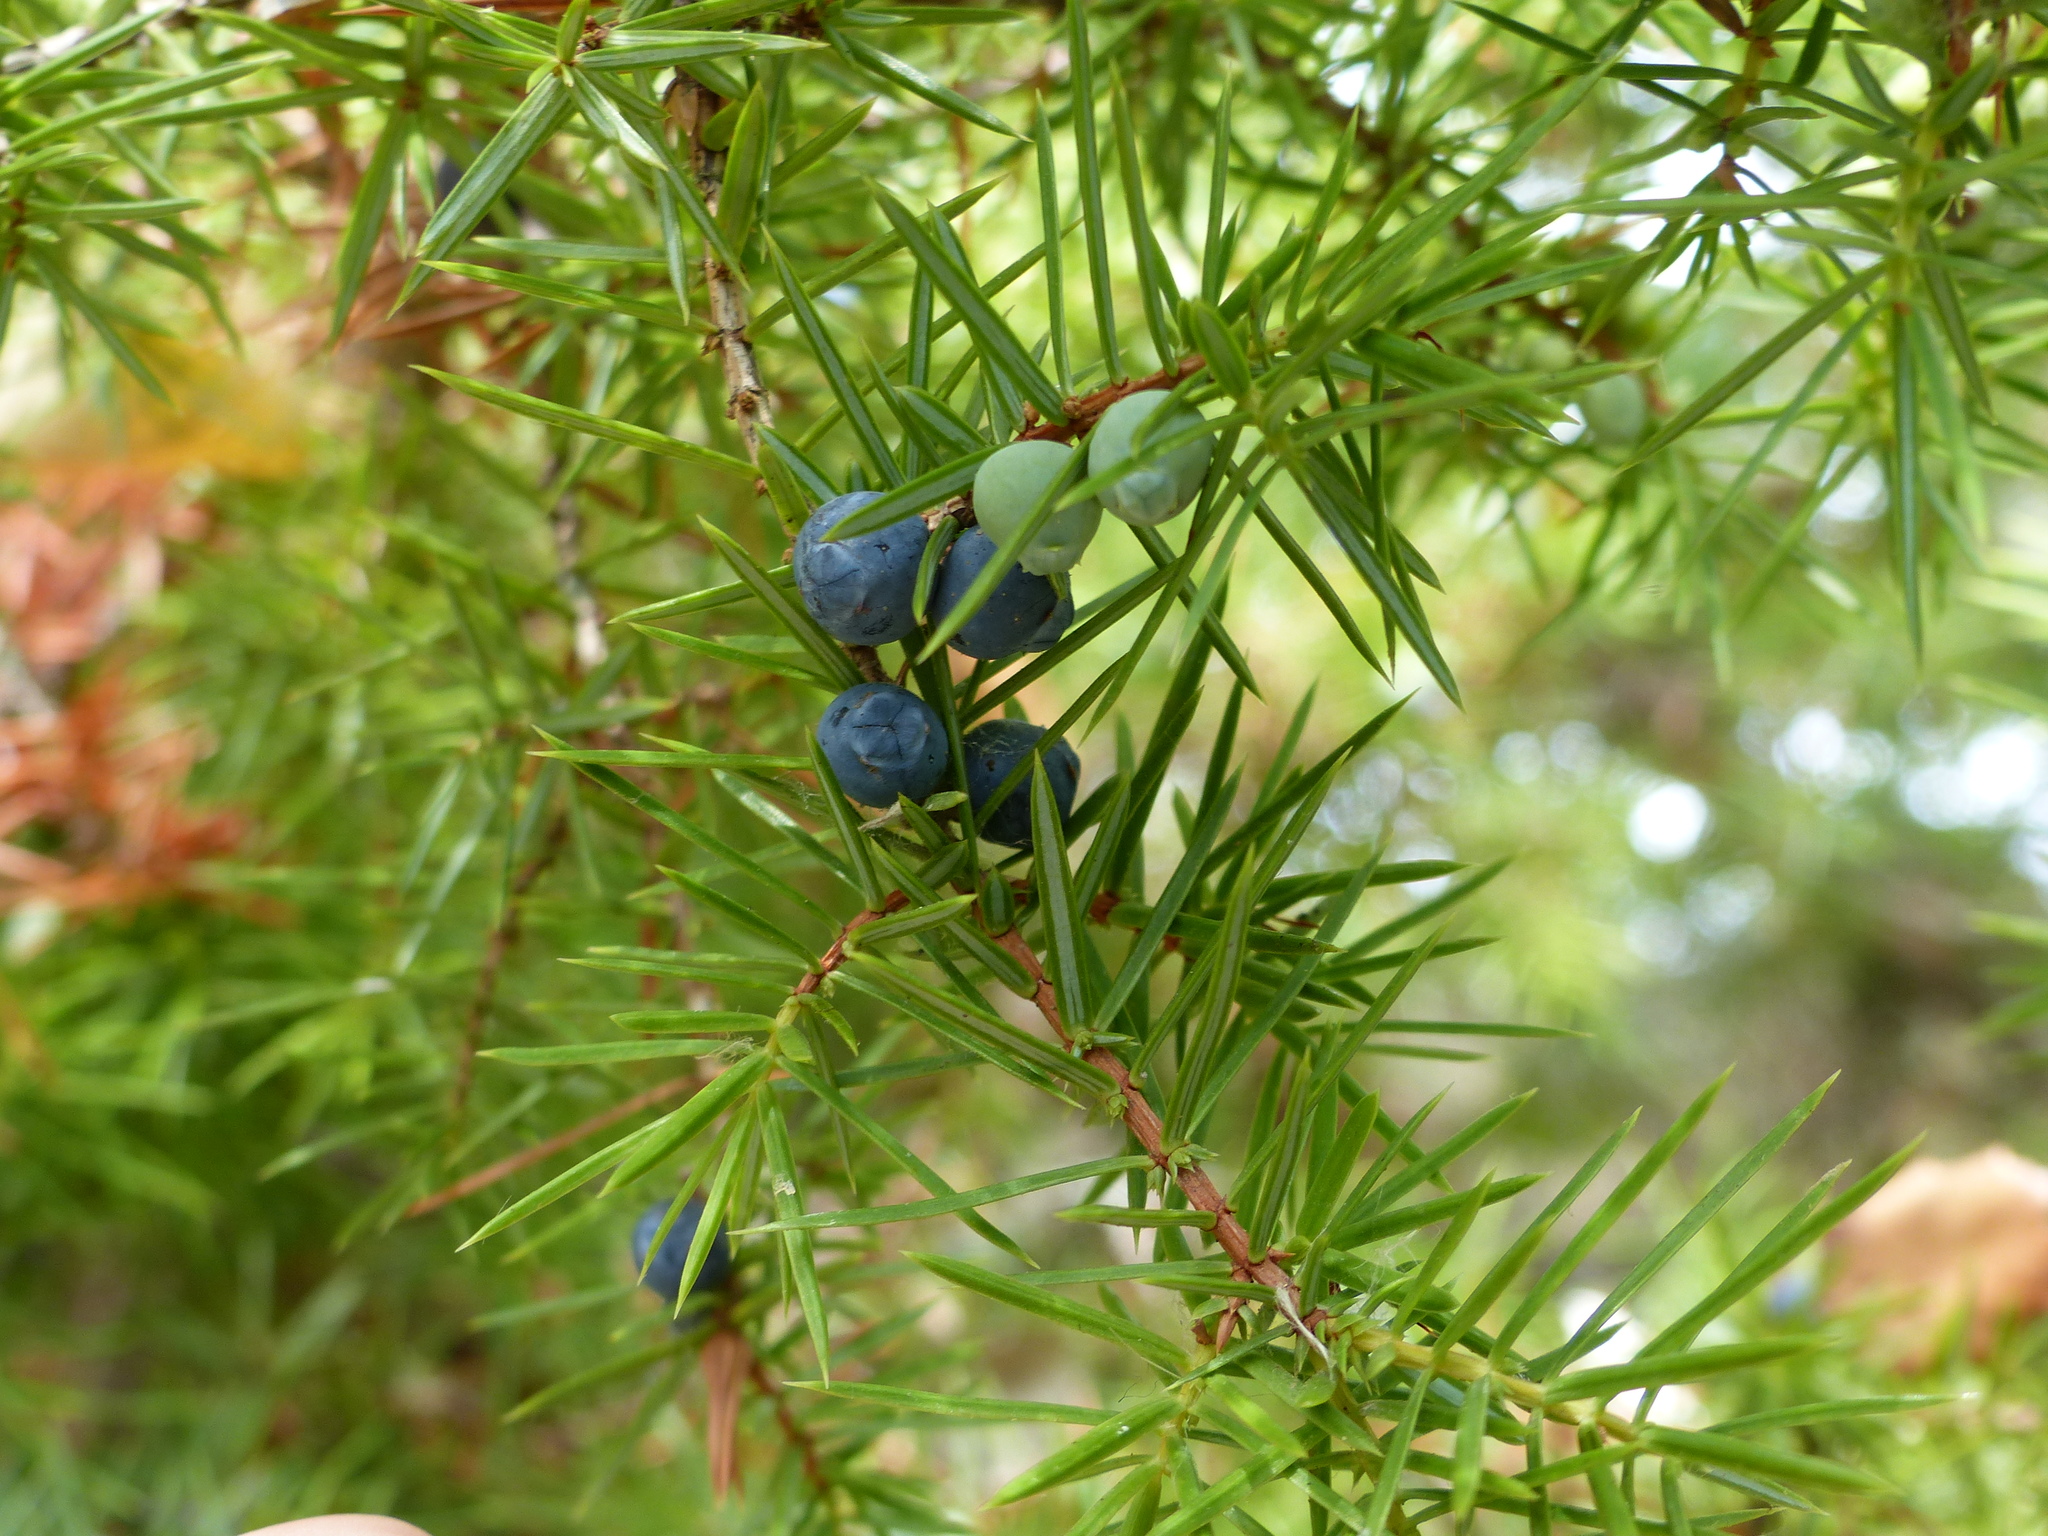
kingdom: Plantae
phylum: Tracheophyta
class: Pinopsida
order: Pinales
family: Cupressaceae
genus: Juniperus
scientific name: Juniperus communis
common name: Common juniper
